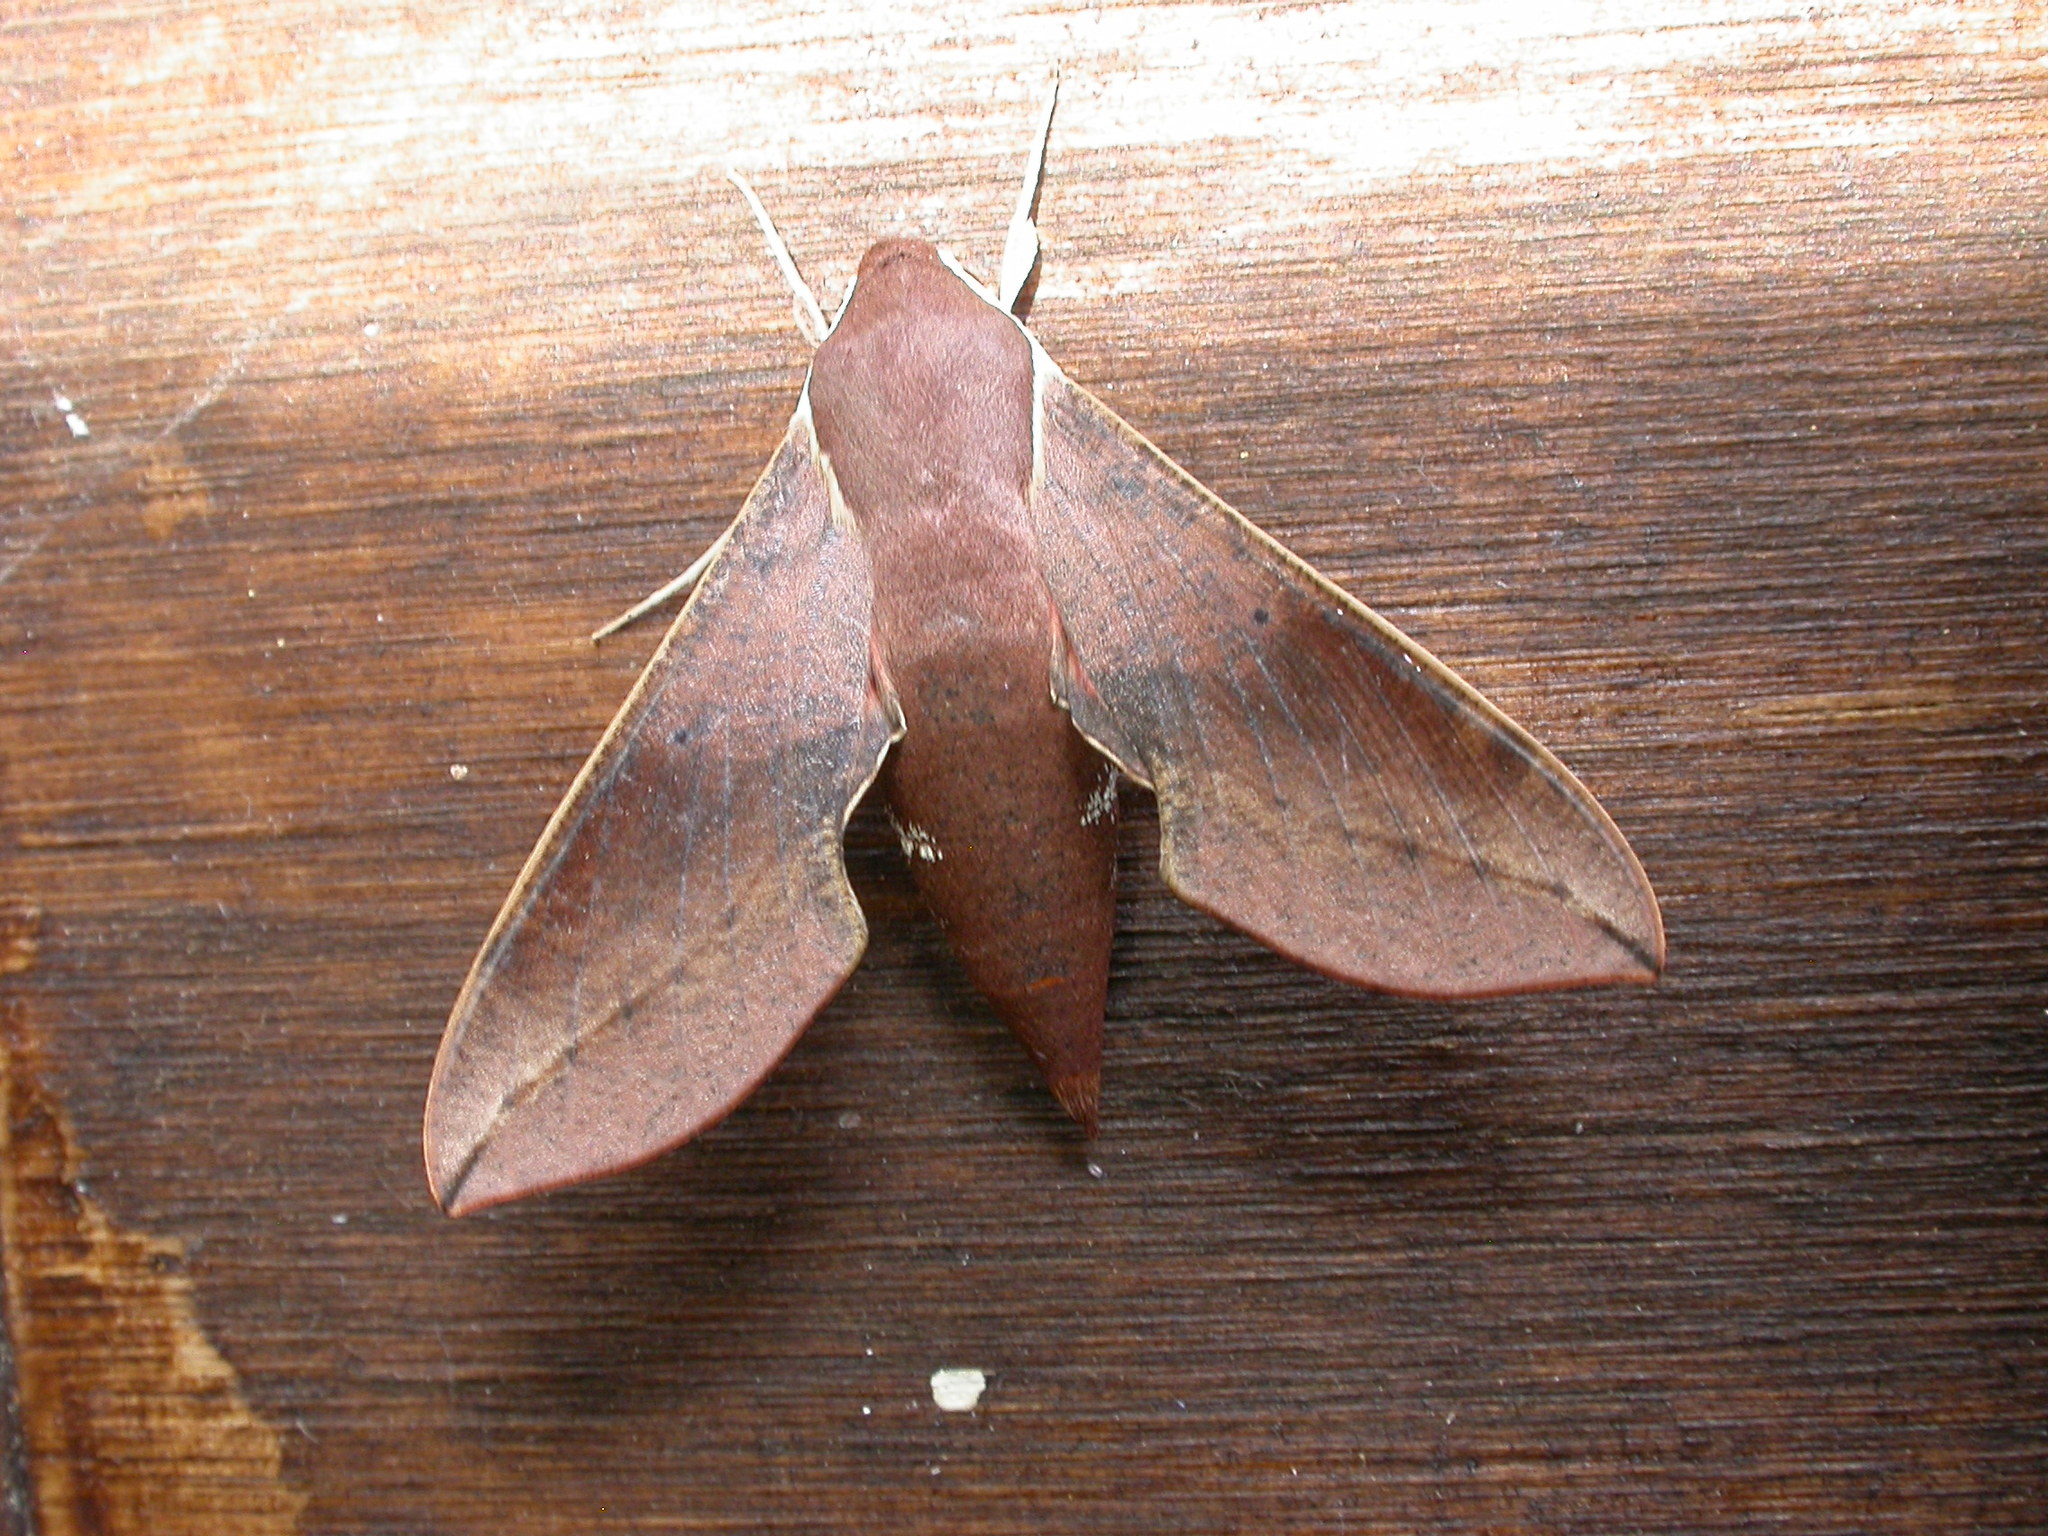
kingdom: Animalia
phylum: Arthropoda
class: Insecta
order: Lepidoptera
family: Sphingidae
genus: Hippotion
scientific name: Hippotion scrofa
